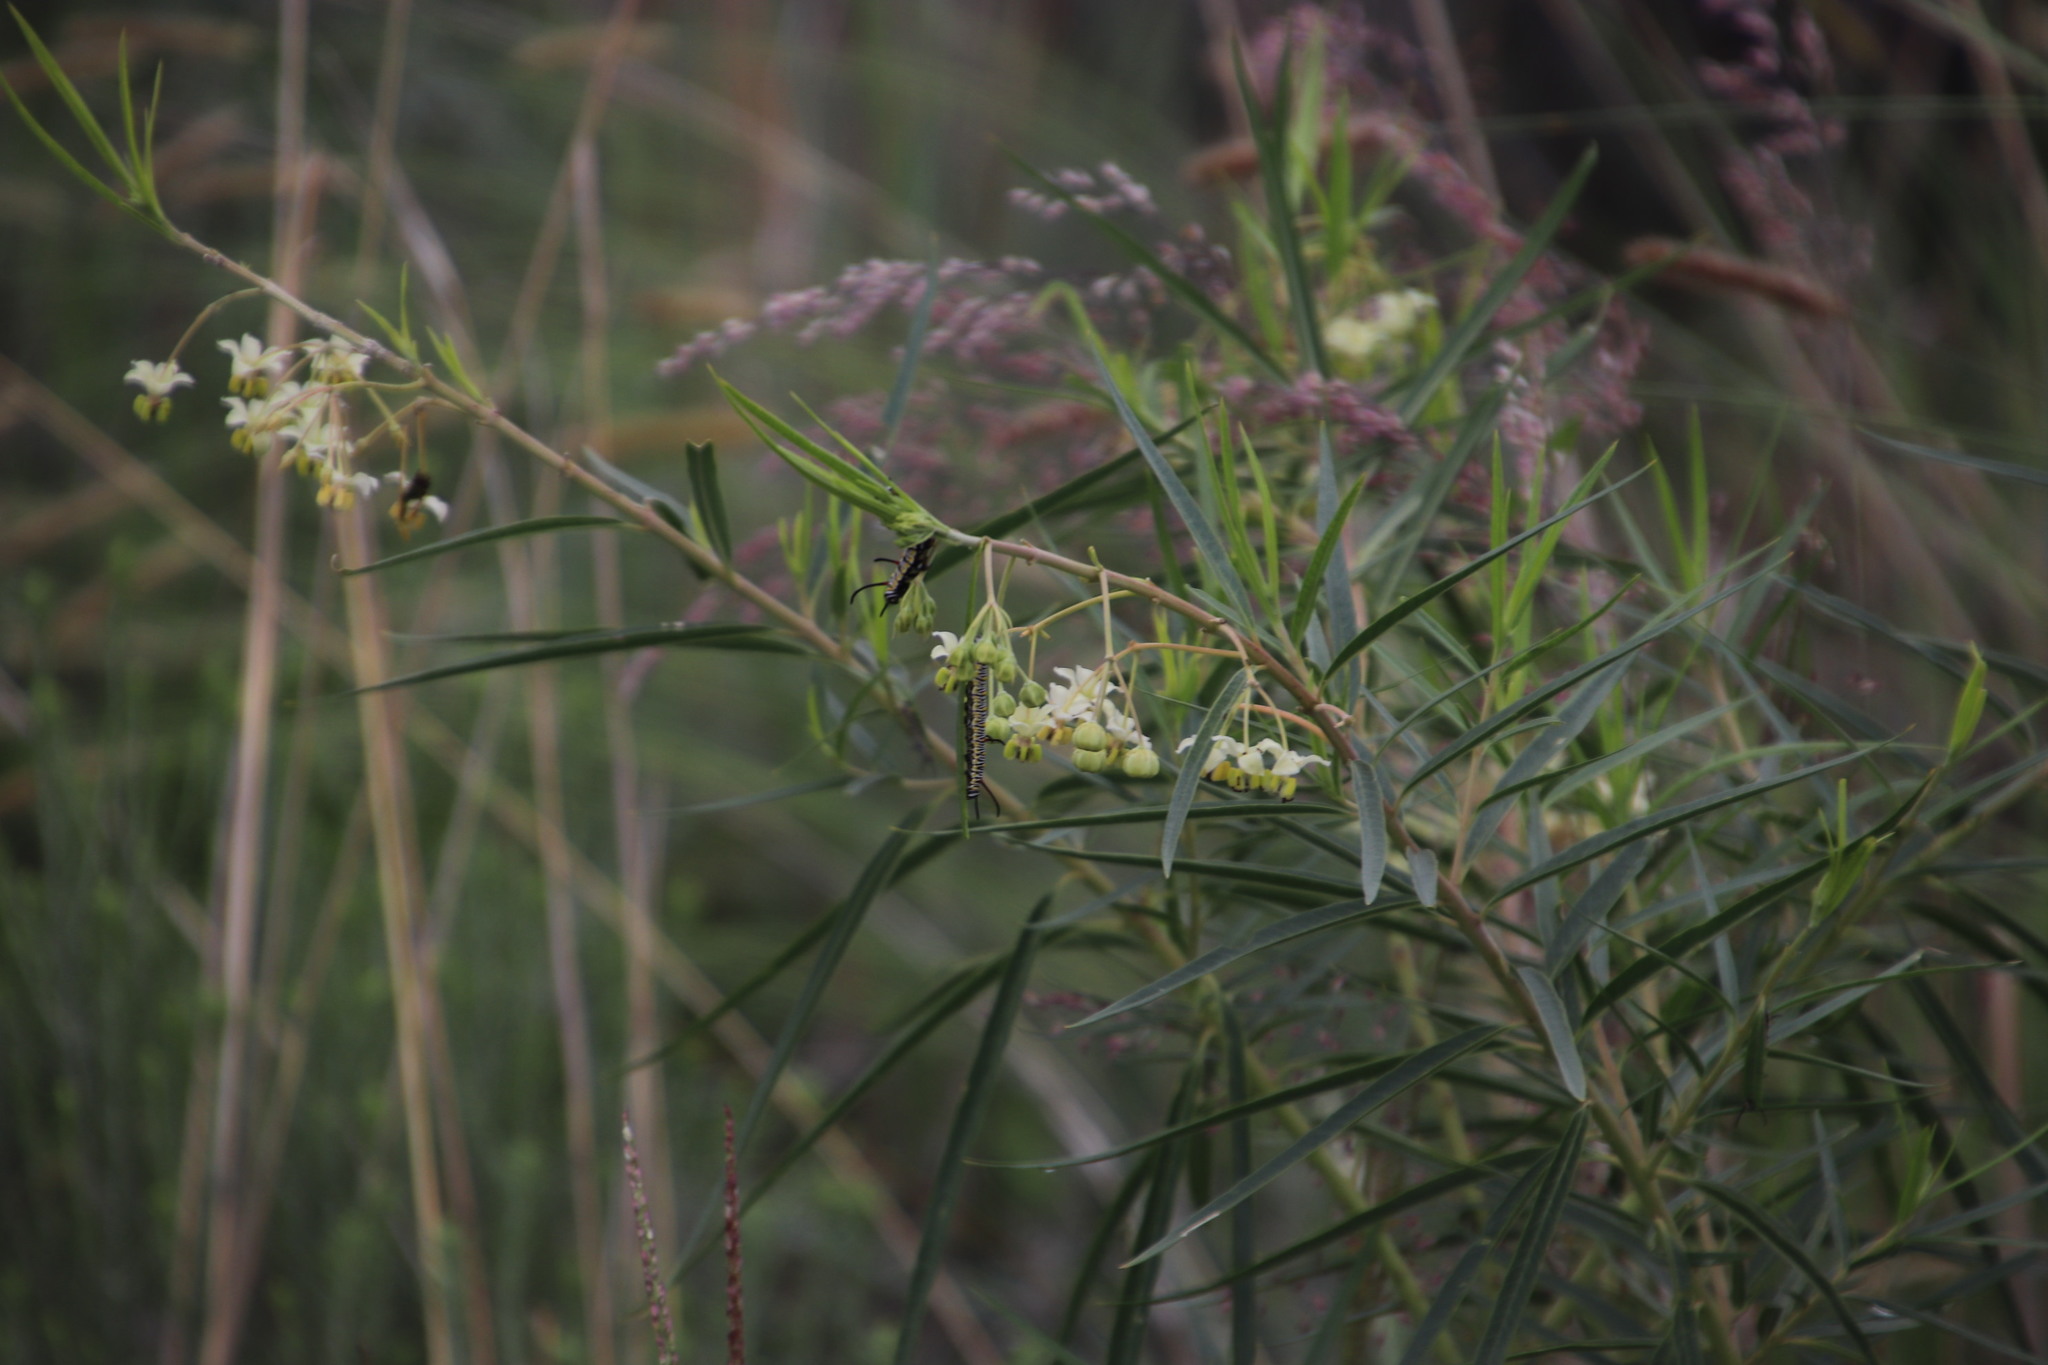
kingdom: Plantae
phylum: Tracheophyta
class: Magnoliopsida
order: Gentianales
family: Apocynaceae
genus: Gomphocarpus
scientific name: Gomphocarpus fruticosus
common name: Milkweed
